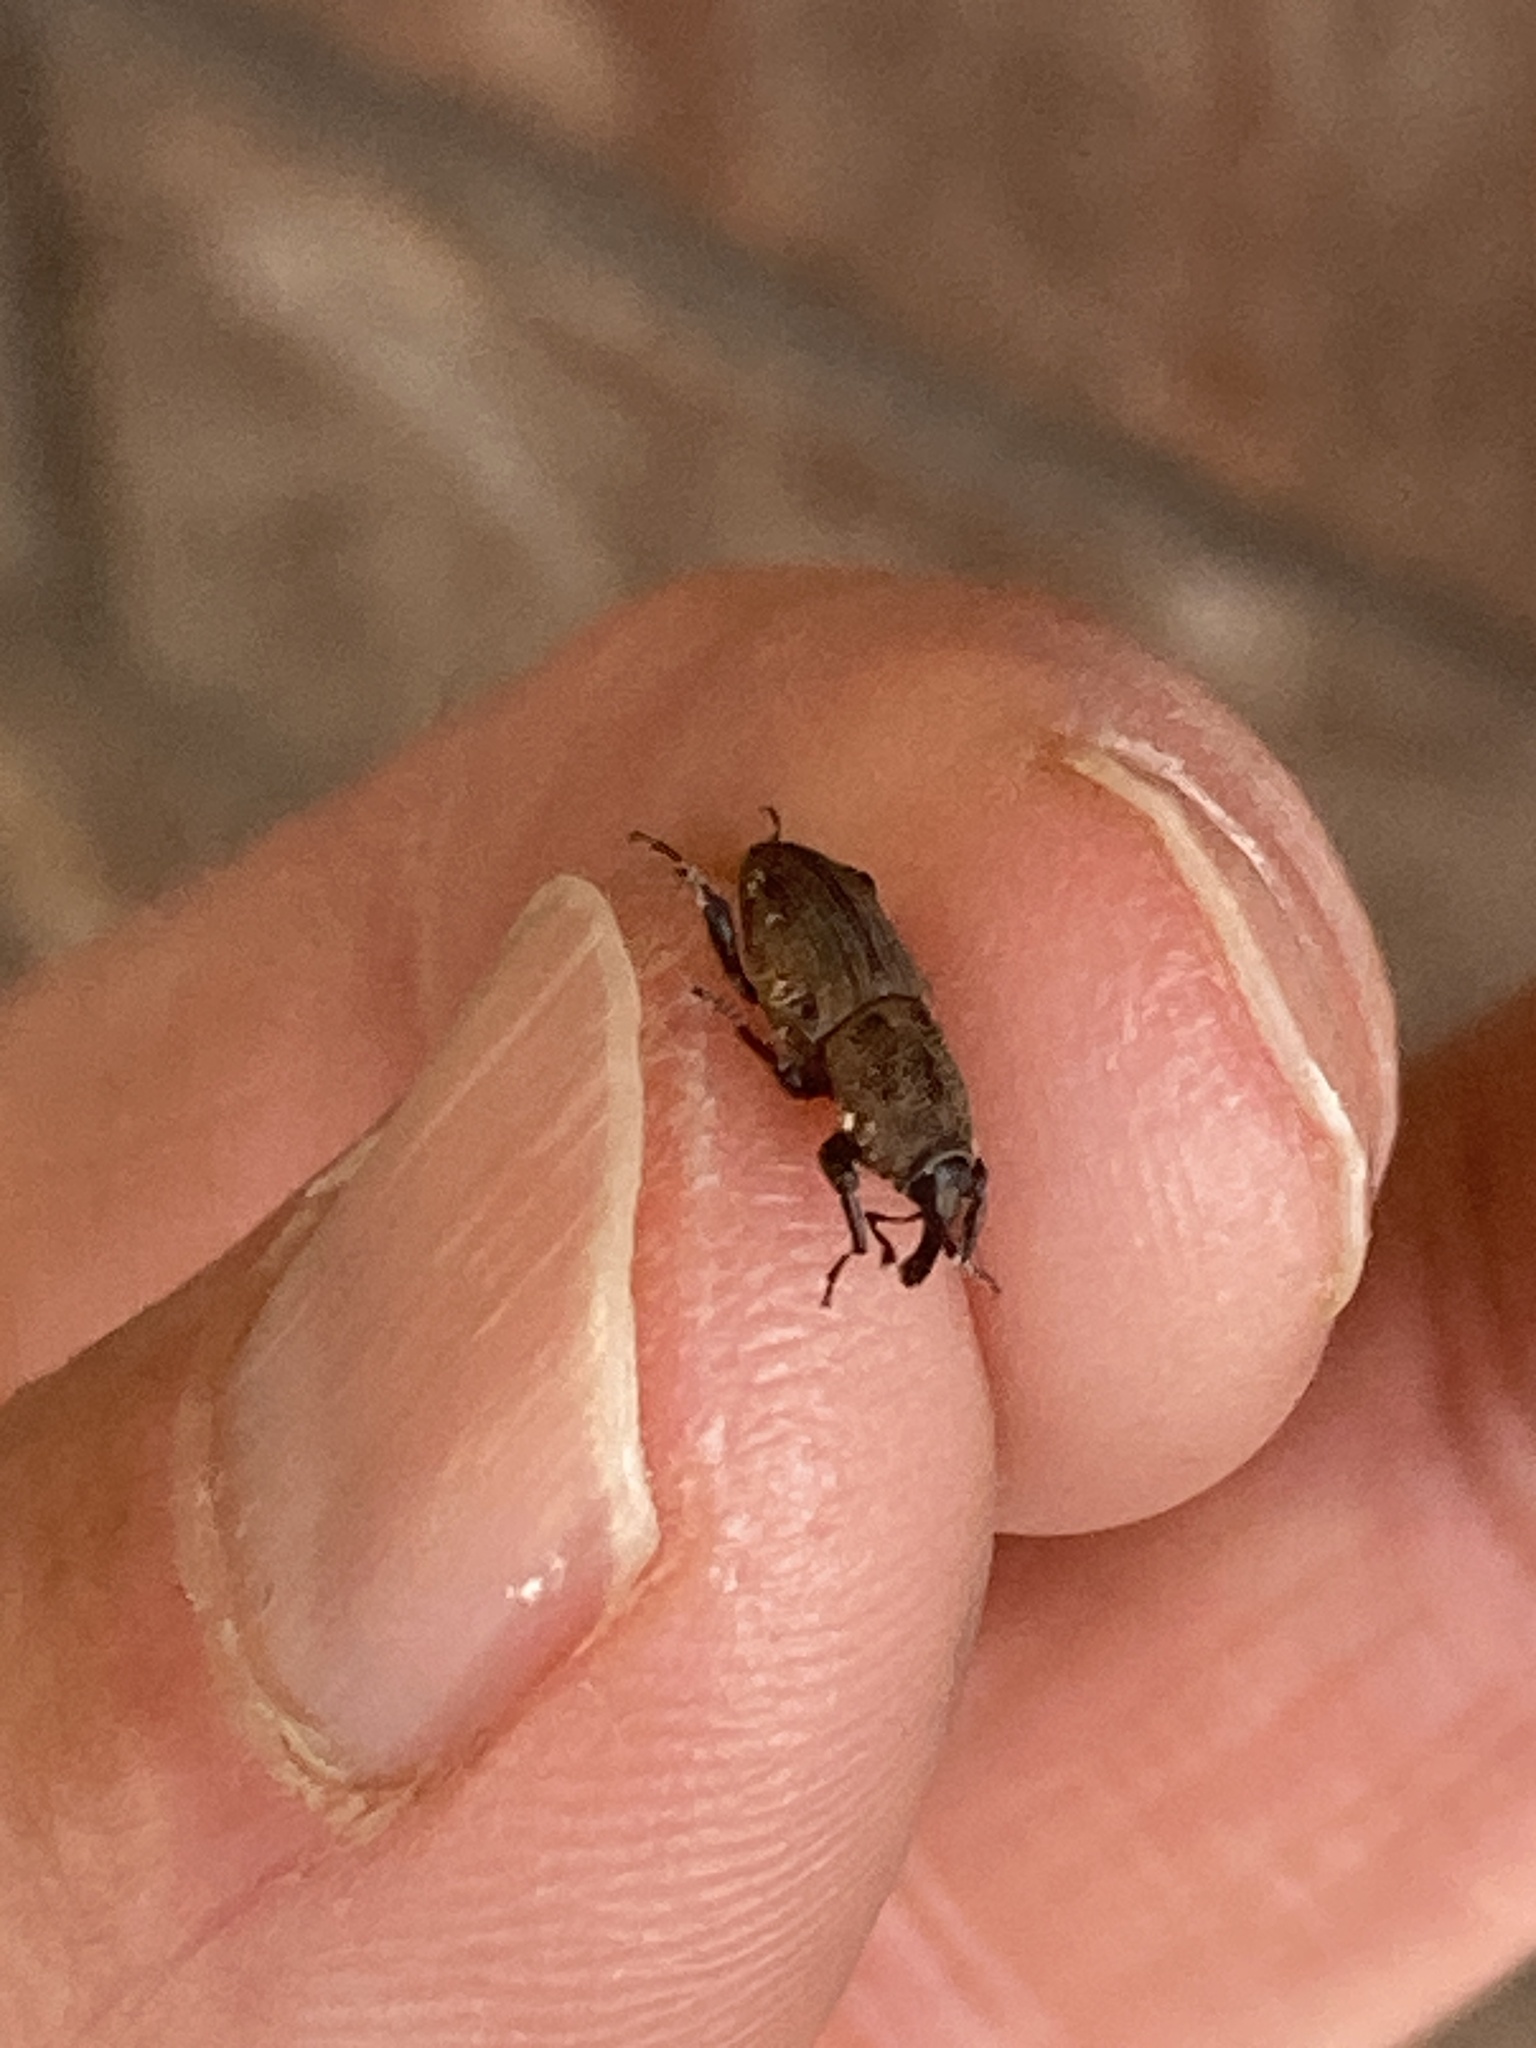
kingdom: Animalia
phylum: Arthropoda
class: Insecta
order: Coleoptera
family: Dryophthoridae
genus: Sphenophorus
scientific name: Sphenophorus coesifrons
